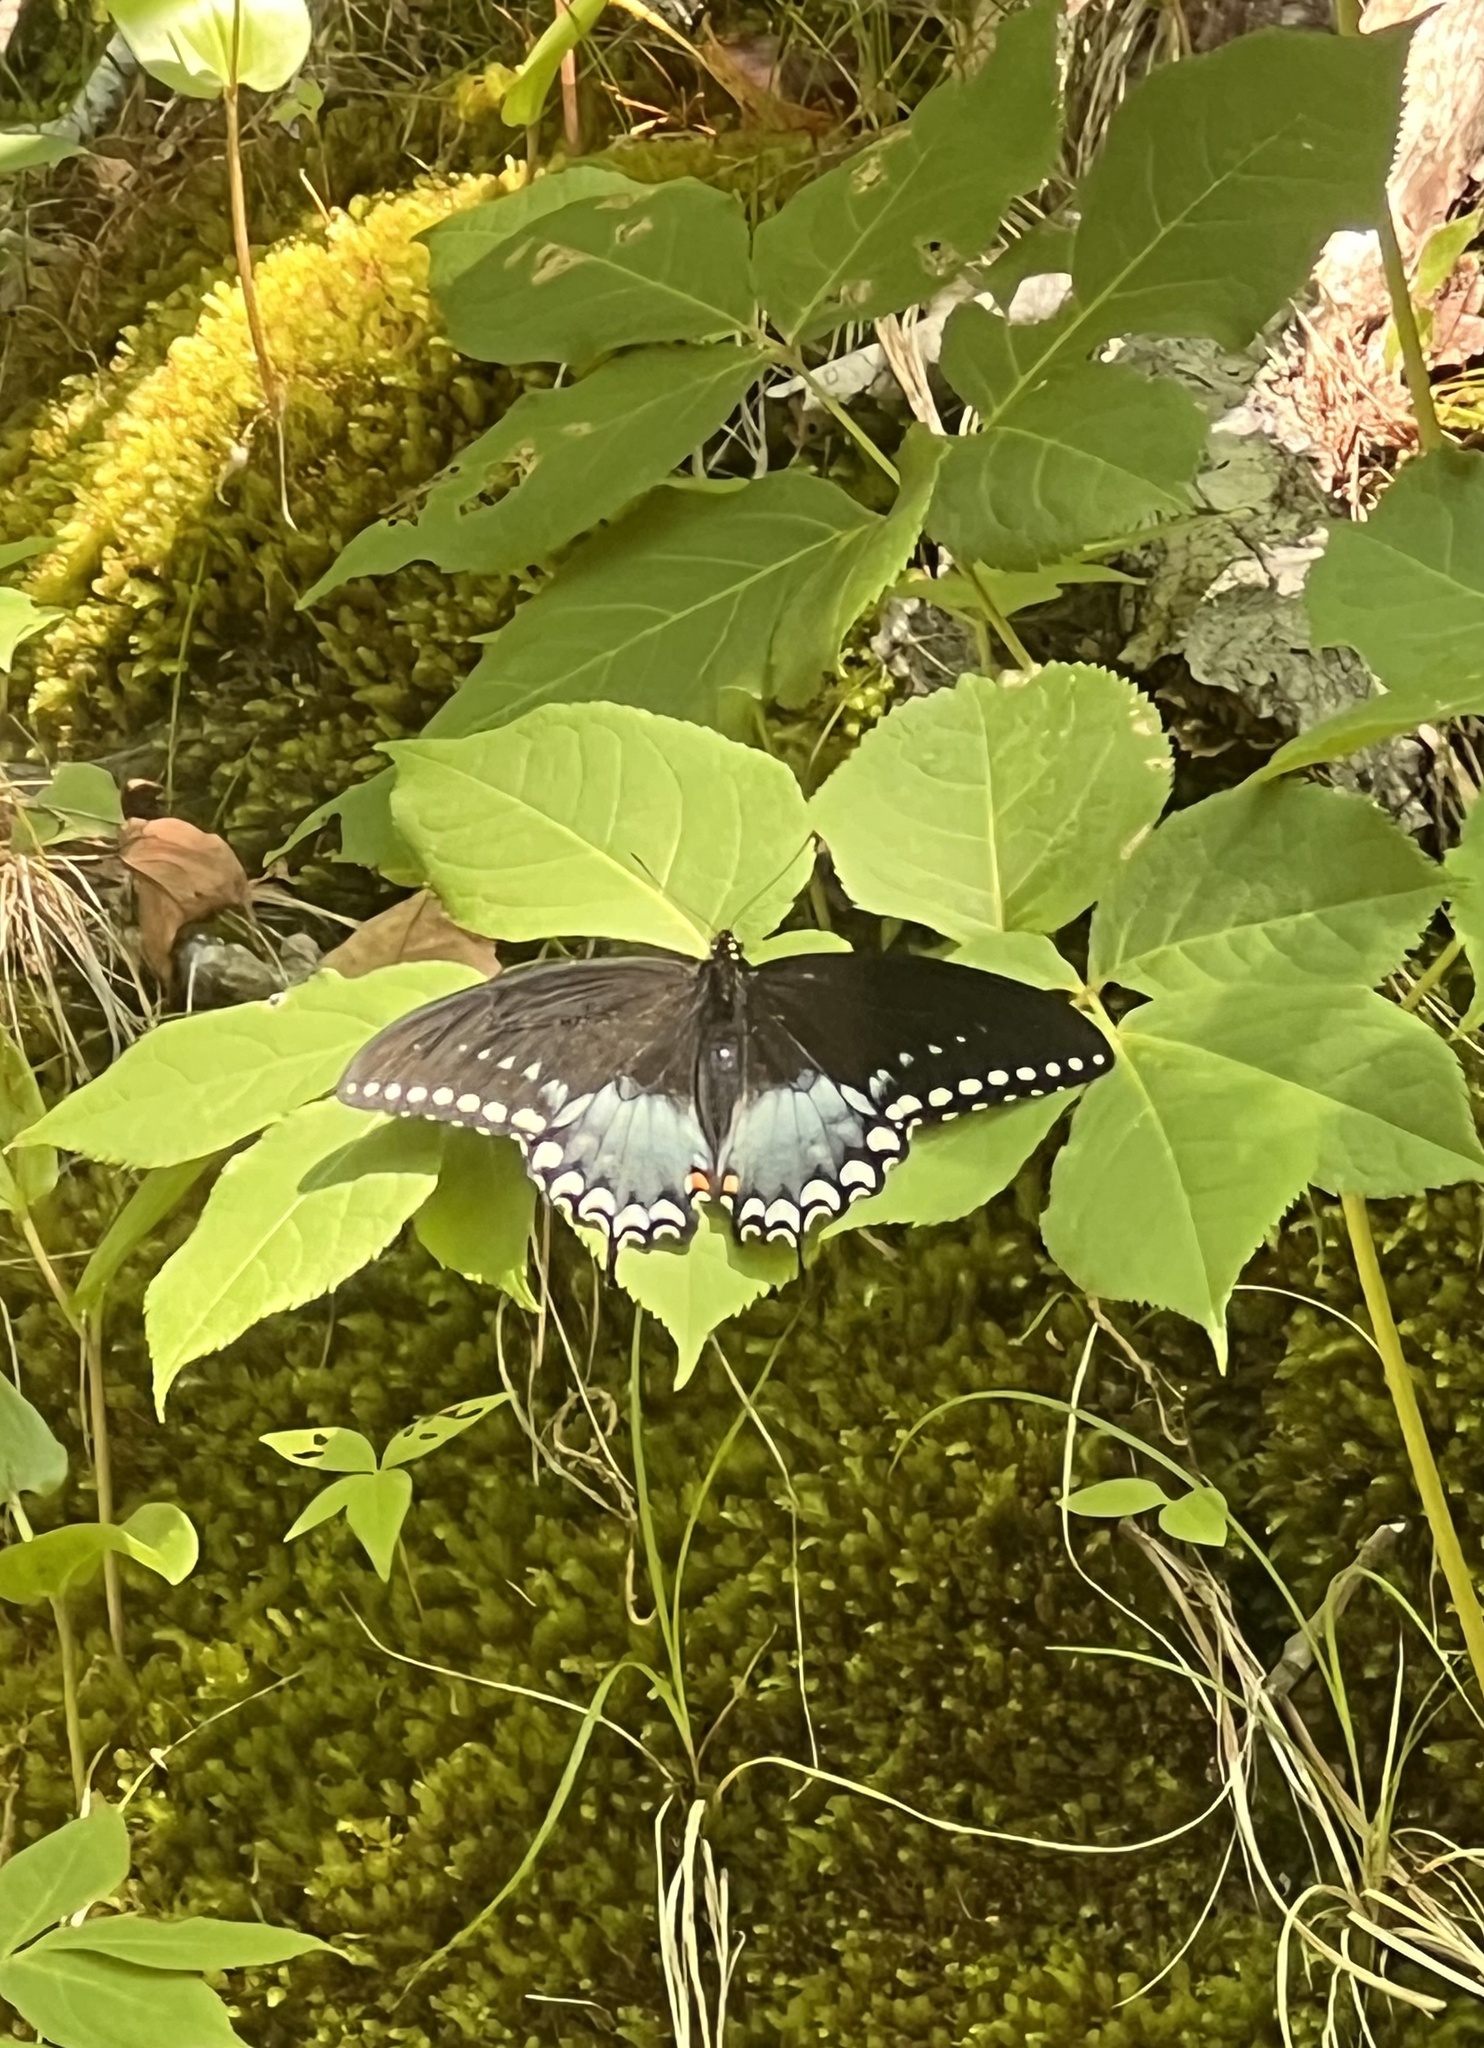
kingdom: Animalia
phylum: Arthropoda
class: Insecta
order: Lepidoptera
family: Papilionidae
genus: Papilio
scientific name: Papilio troilus
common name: Spicebush swallowtail
